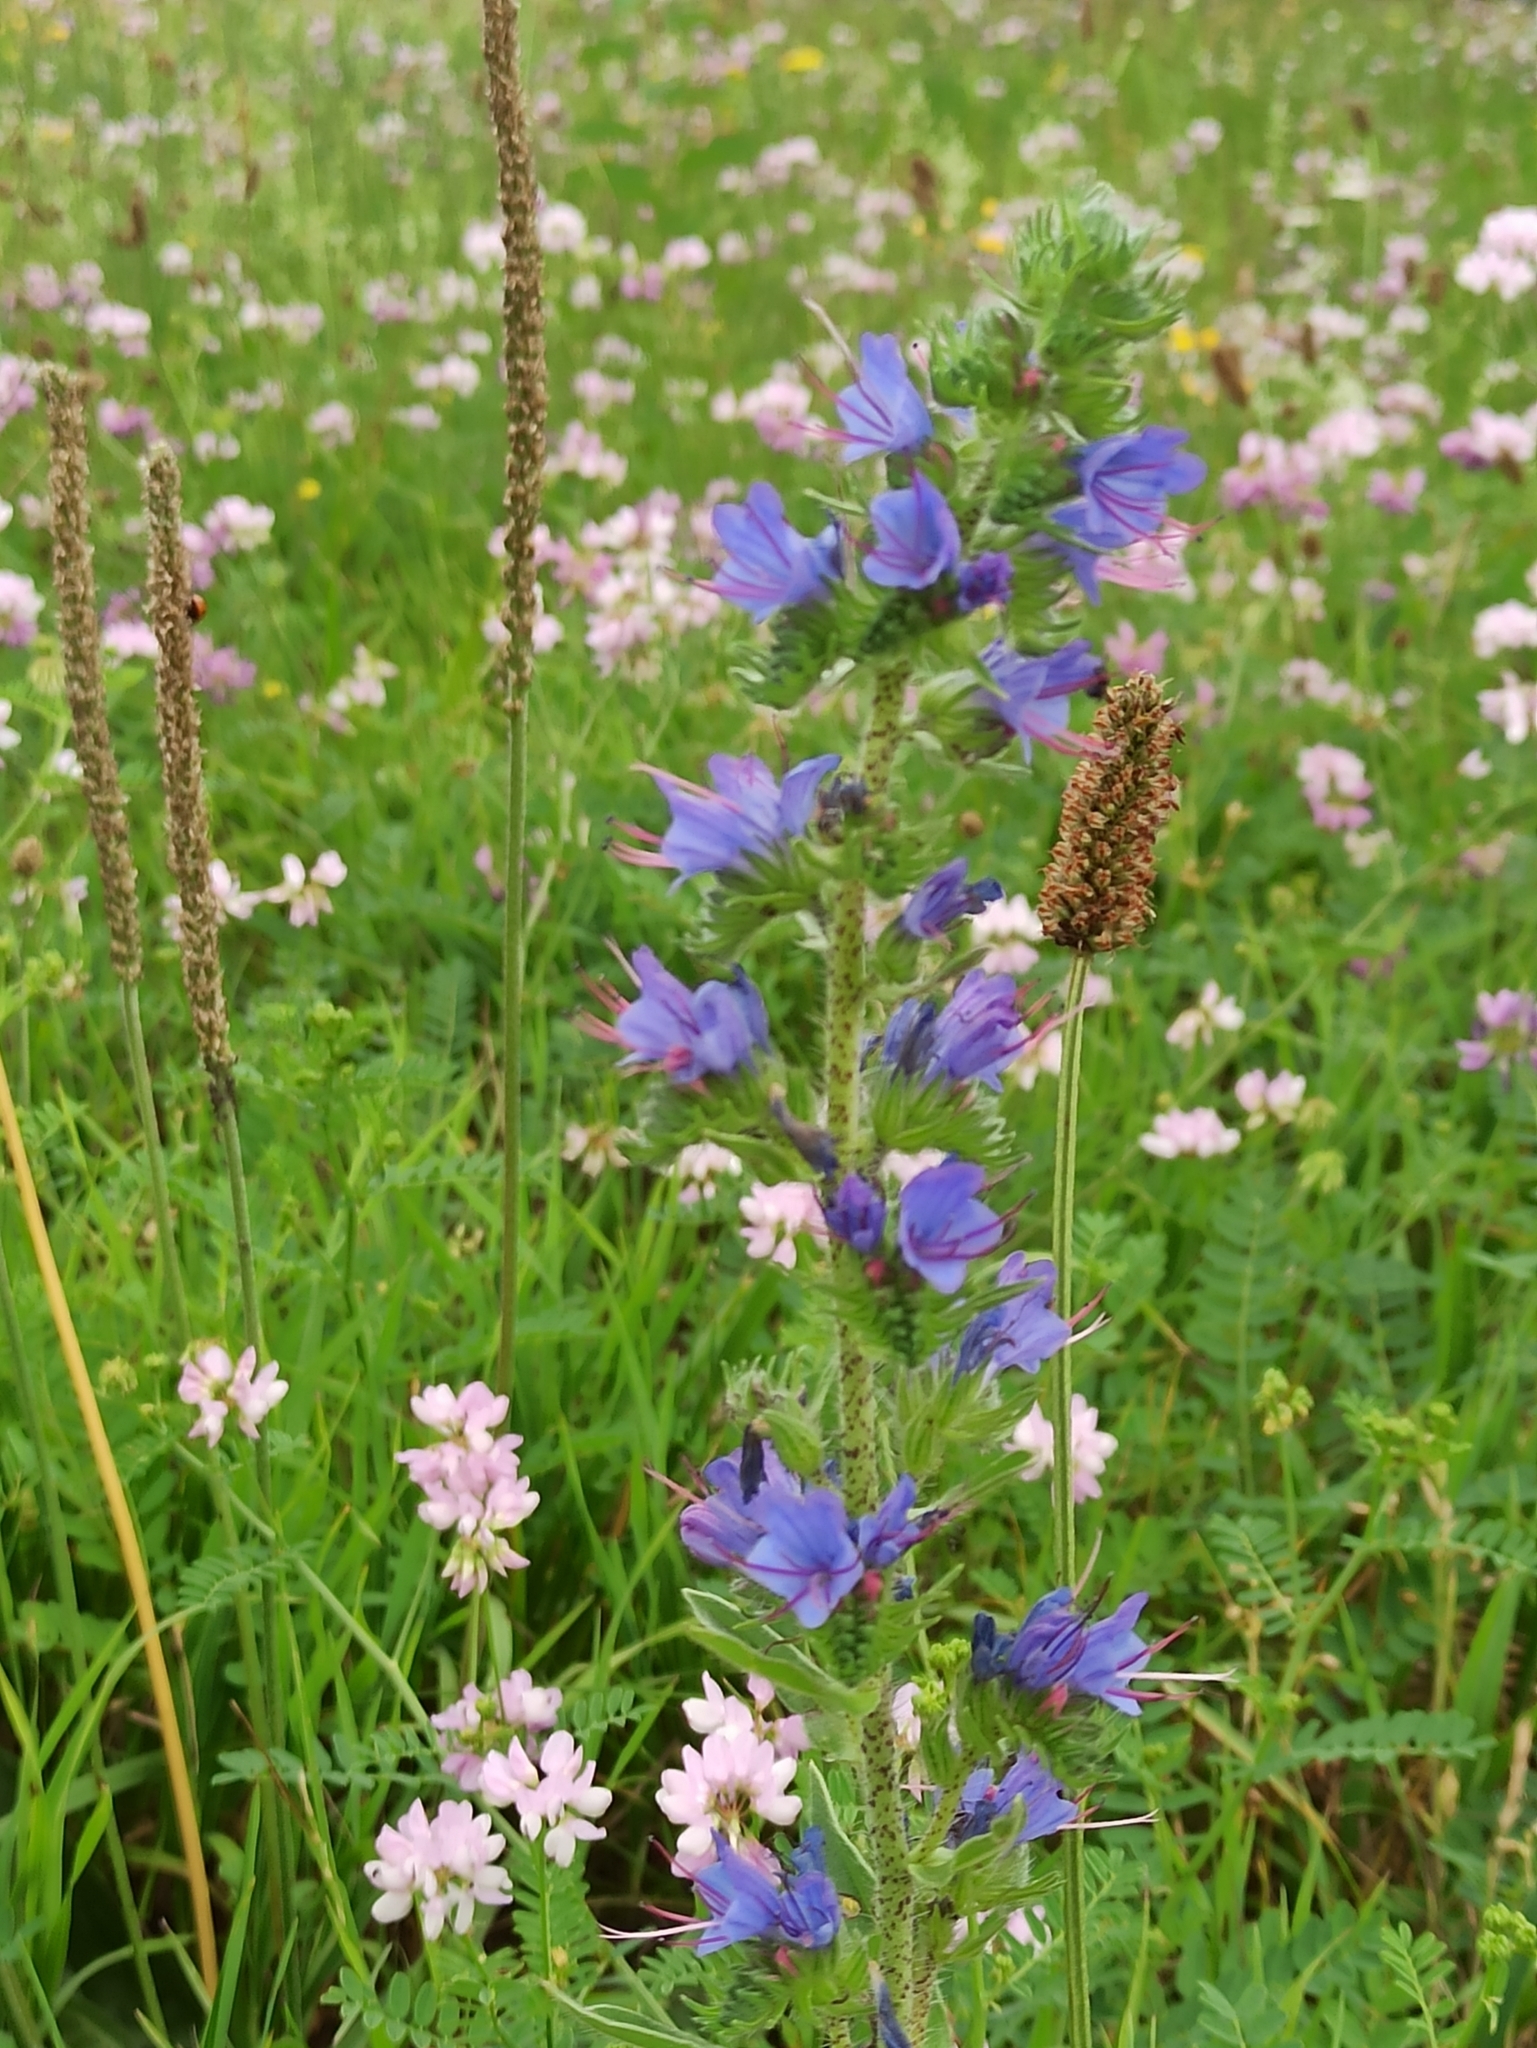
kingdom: Plantae
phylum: Tracheophyta
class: Magnoliopsida
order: Boraginales
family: Boraginaceae
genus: Echium
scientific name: Echium vulgare
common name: Common viper's bugloss
